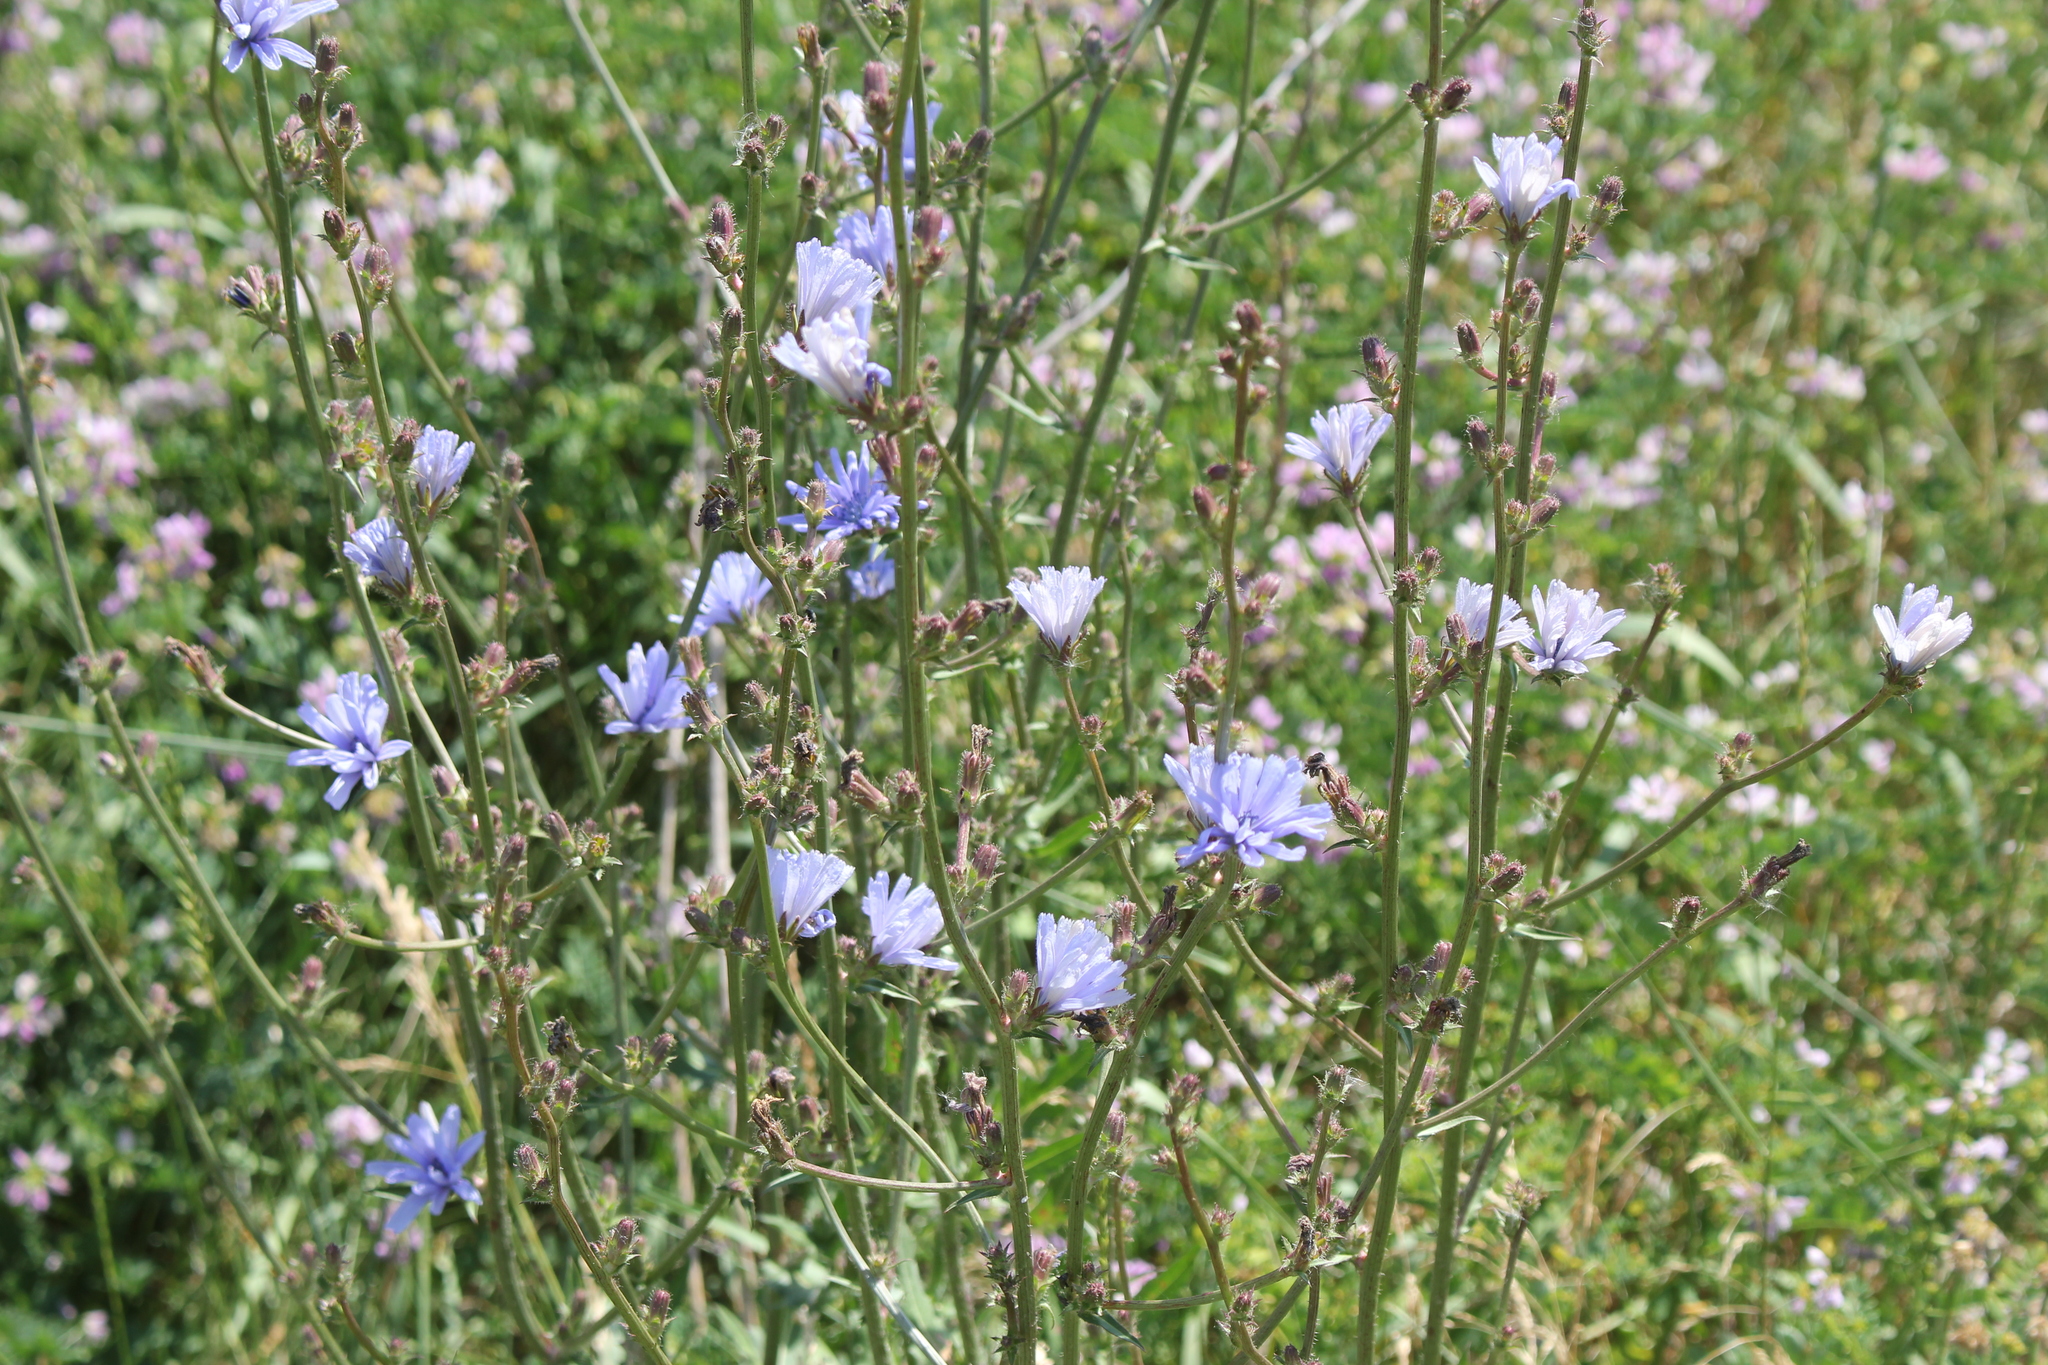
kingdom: Plantae
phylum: Tracheophyta
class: Magnoliopsida
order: Asterales
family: Asteraceae
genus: Cichorium
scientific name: Cichorium intybus
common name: Chicory
